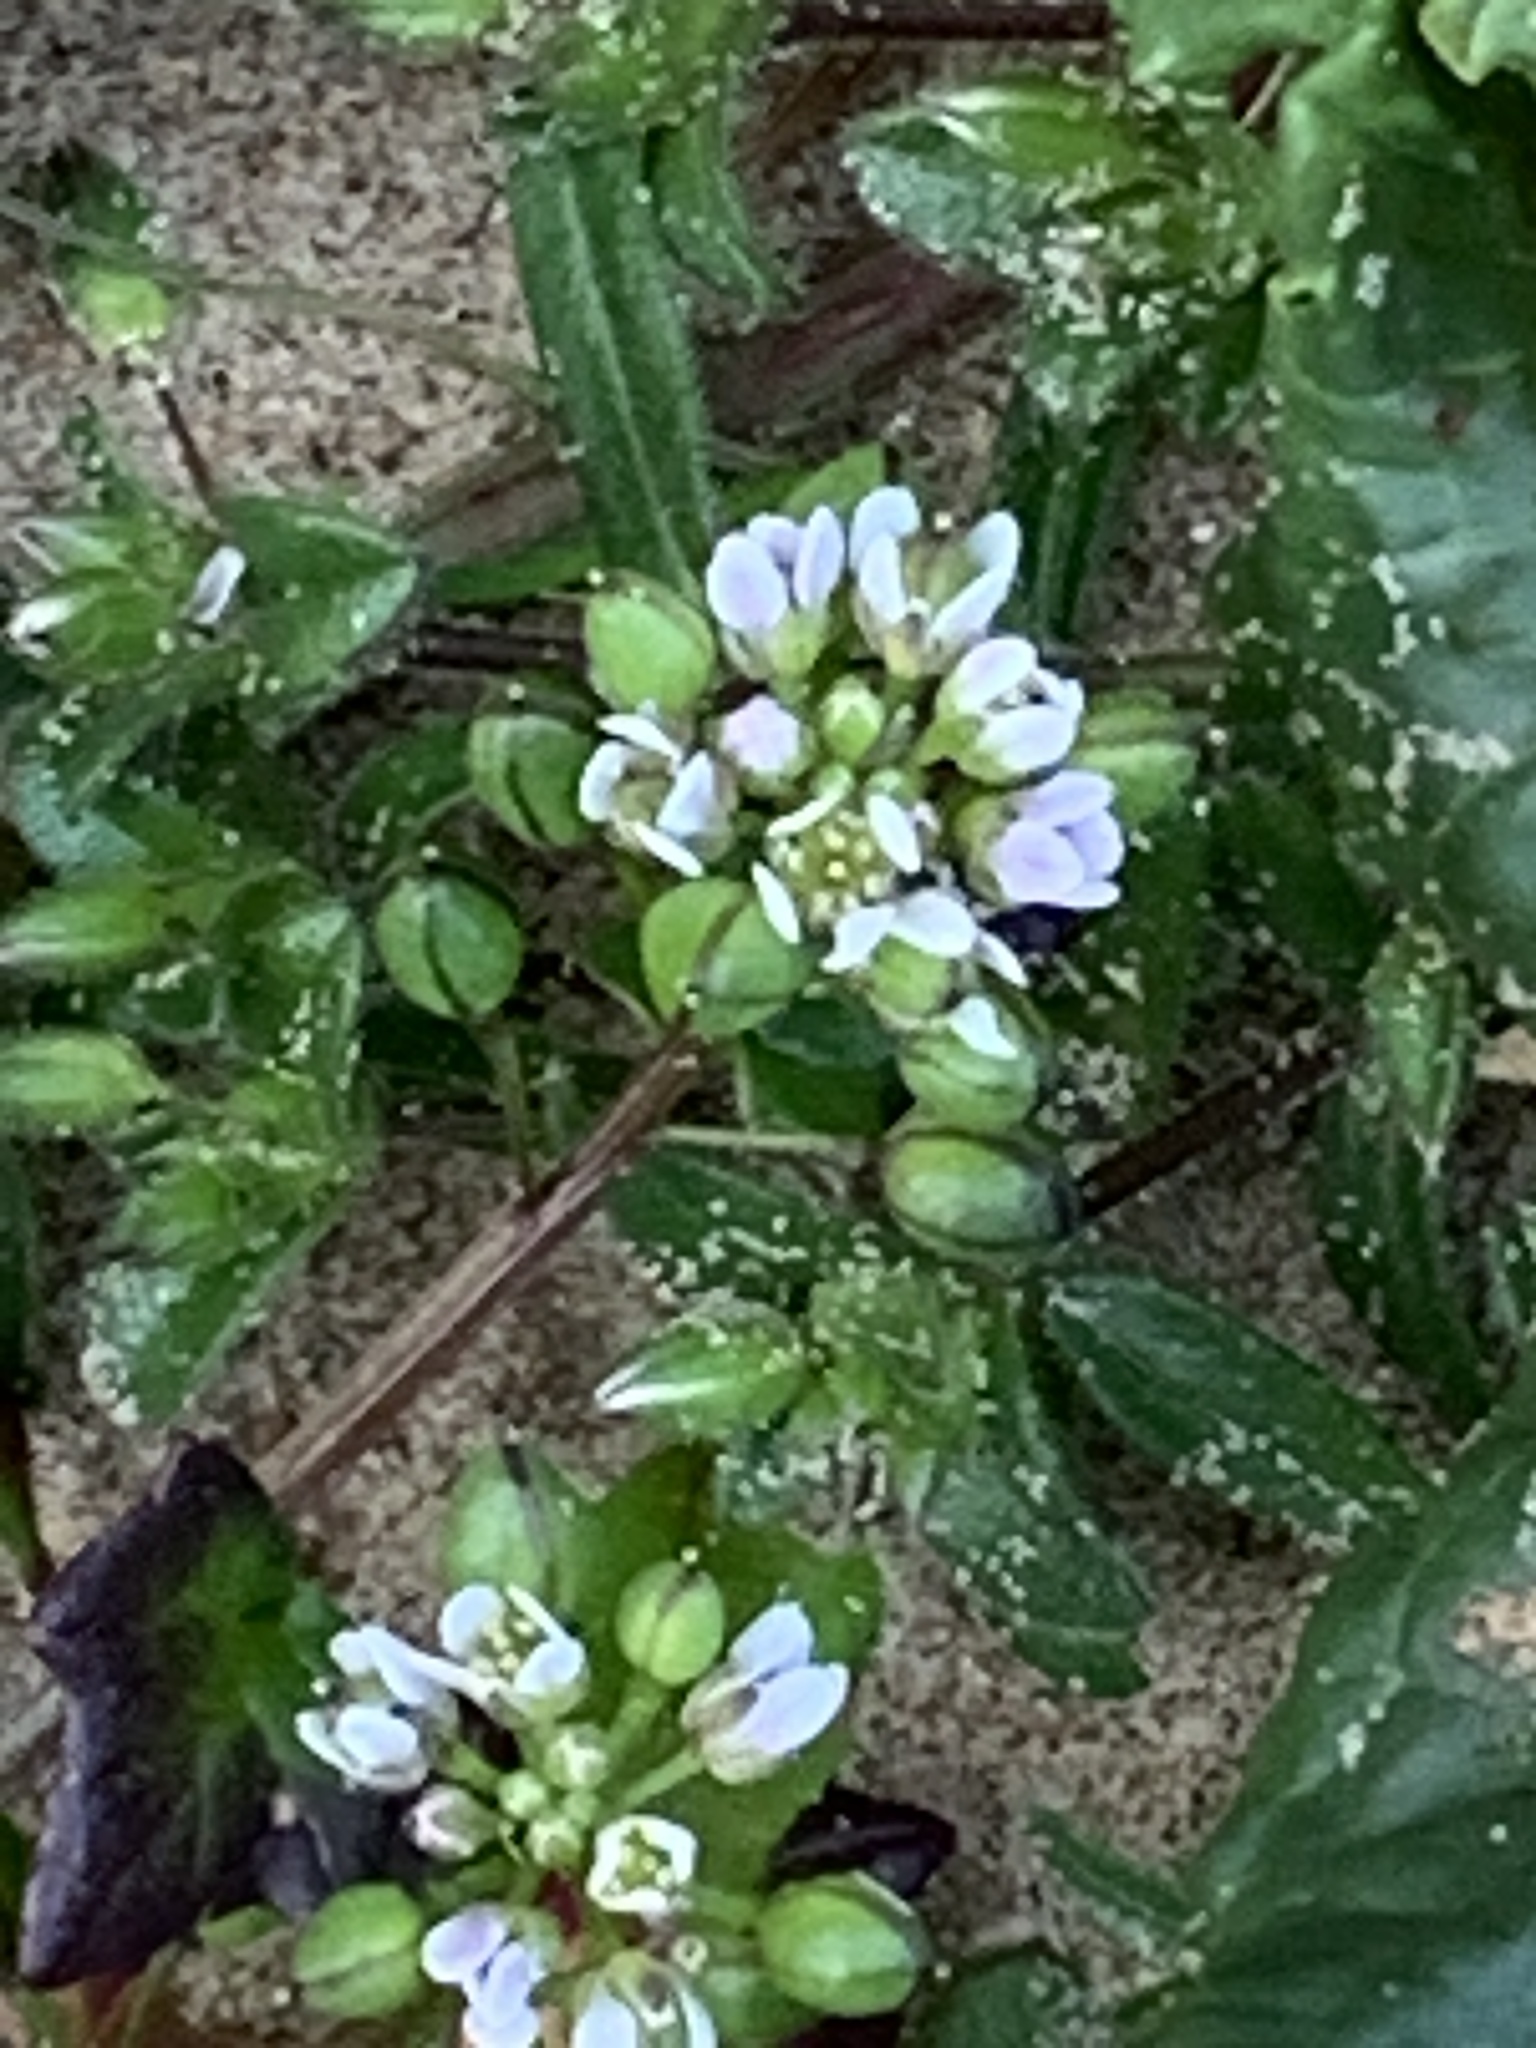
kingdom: Plantae
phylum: Tracheophyta
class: Magnoliopsida
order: Brassicales
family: Brassicaceae
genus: Cochlearia
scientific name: Cochlearia danica
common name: Early scurvygrass
